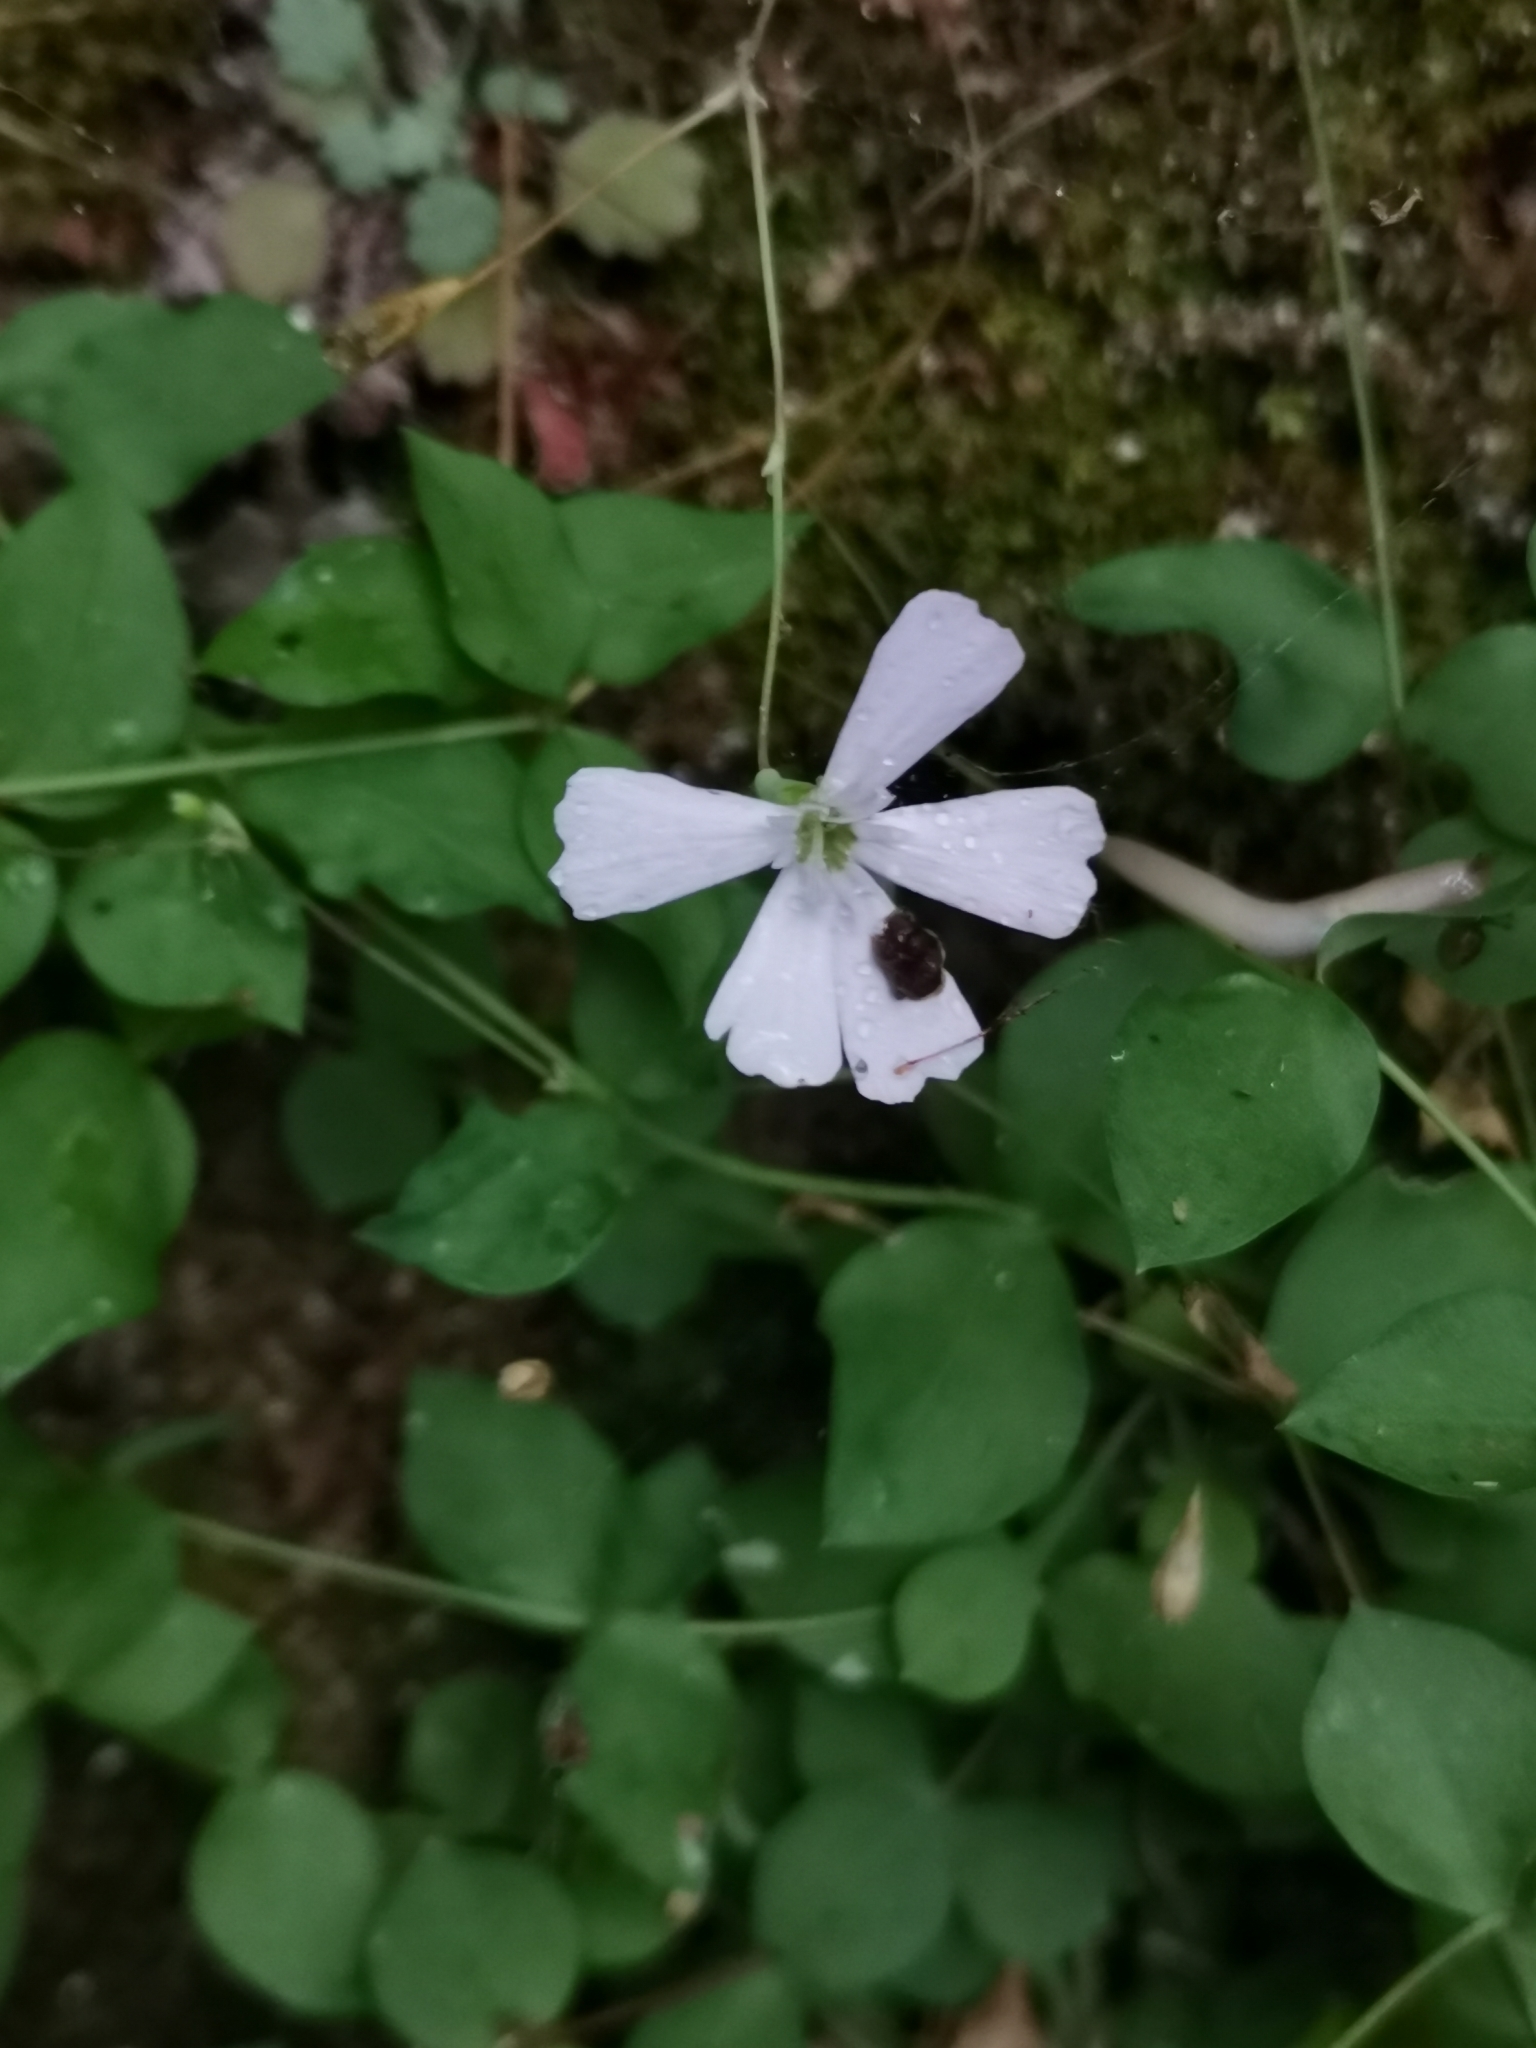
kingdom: Plantae
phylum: Tracheophyta
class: Magnoliopsida
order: Caryophyllales
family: Caryophyllaceae
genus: Petrocoptis
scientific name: Petrocoptis pyrenaica
